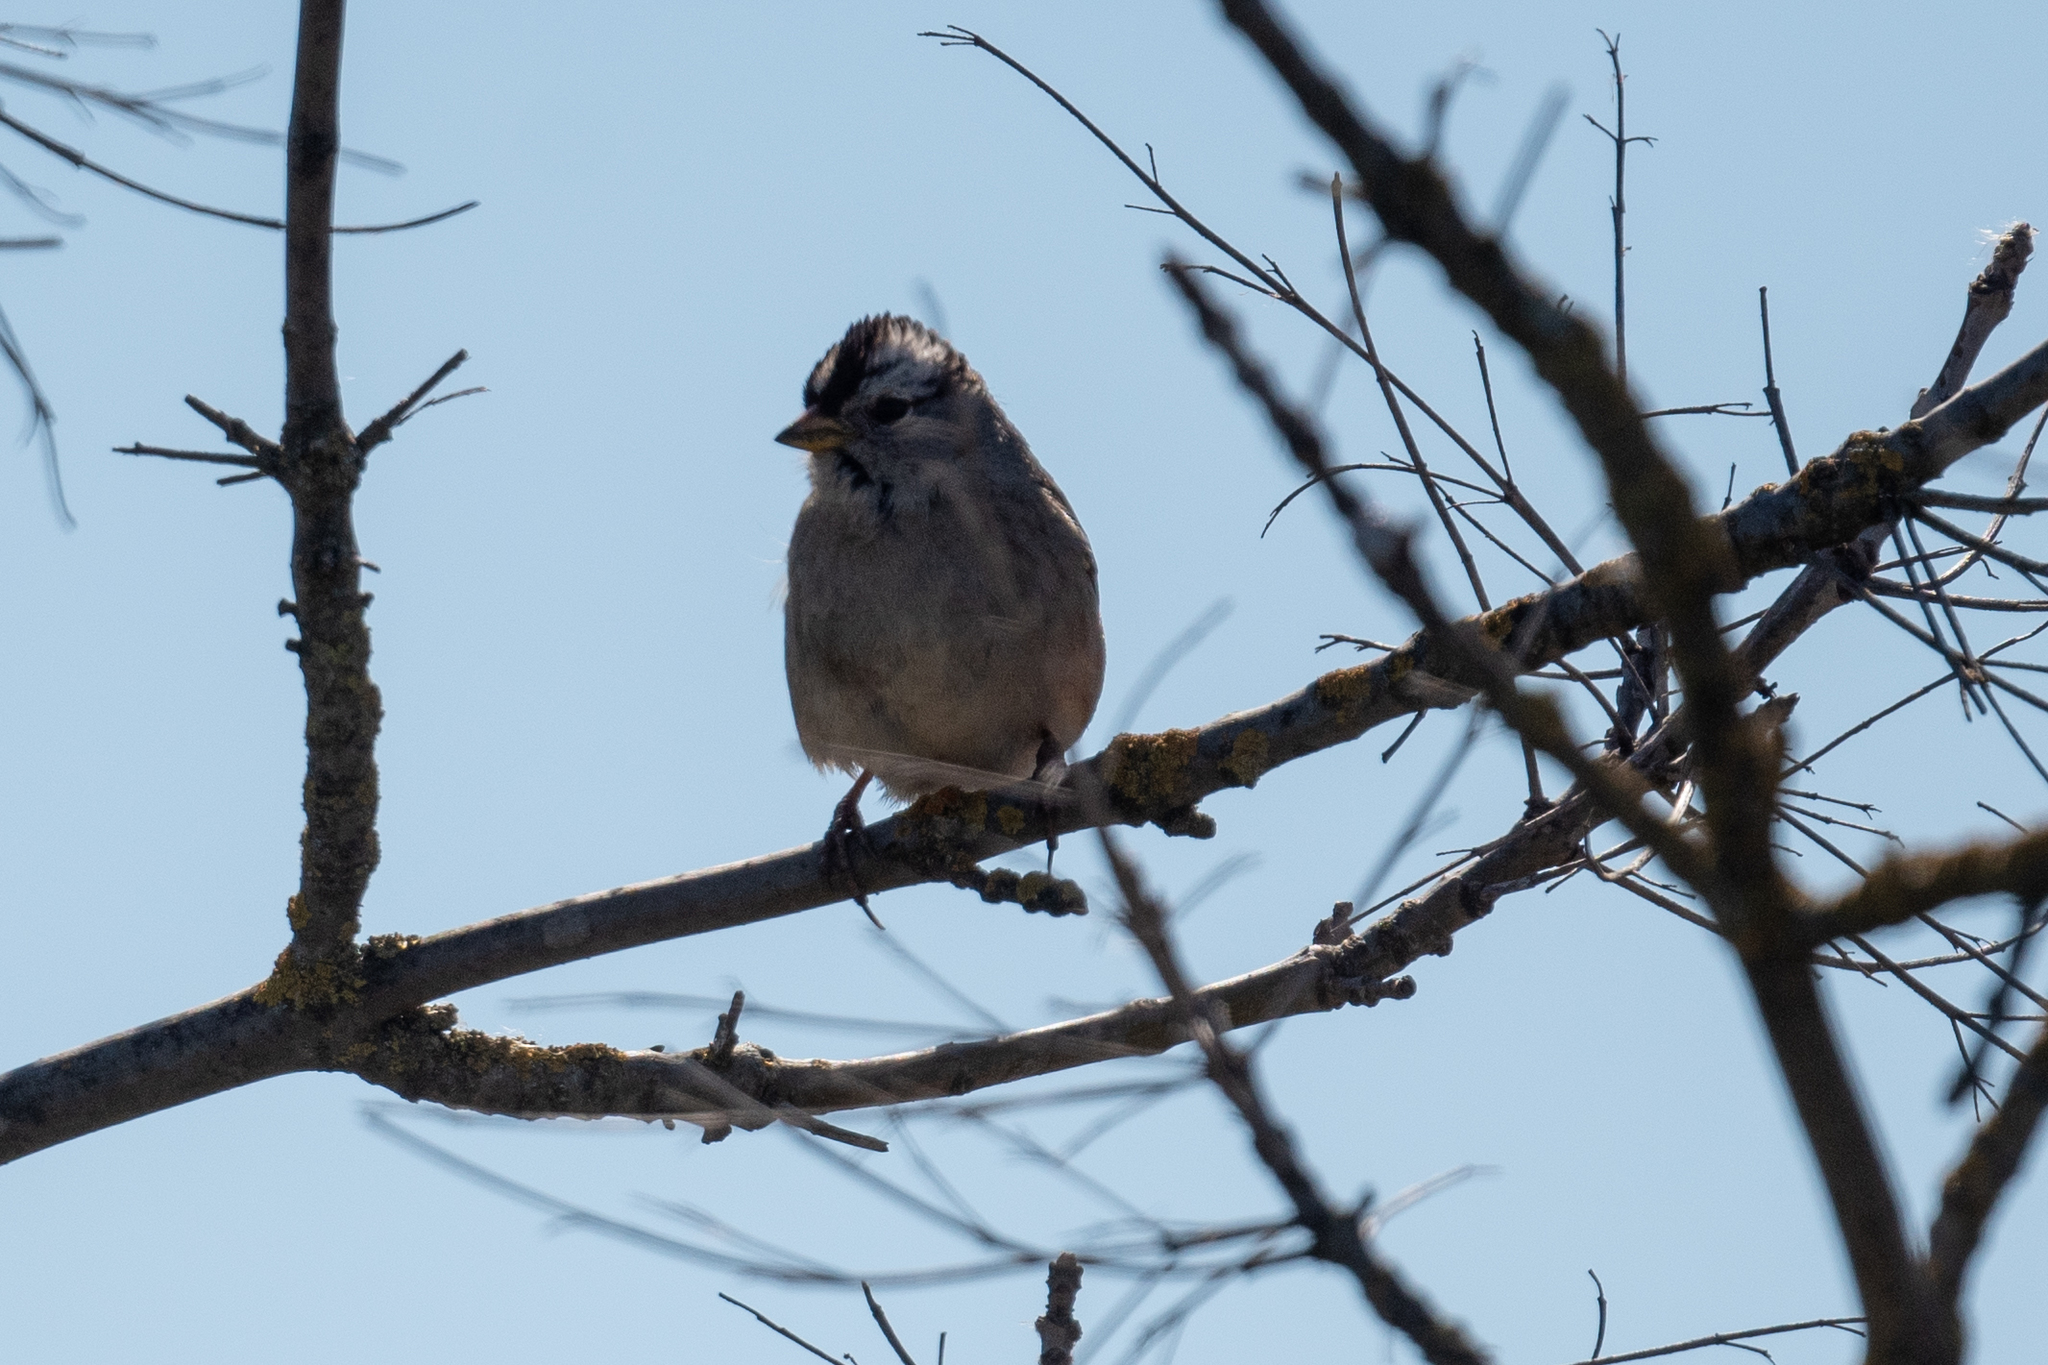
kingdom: Animalia
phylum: Chordata
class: Aves
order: Passeriformes
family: Passerellidae
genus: Zonotrichia
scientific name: Zonotrichia leucophrys
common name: White-crowned sparrow
